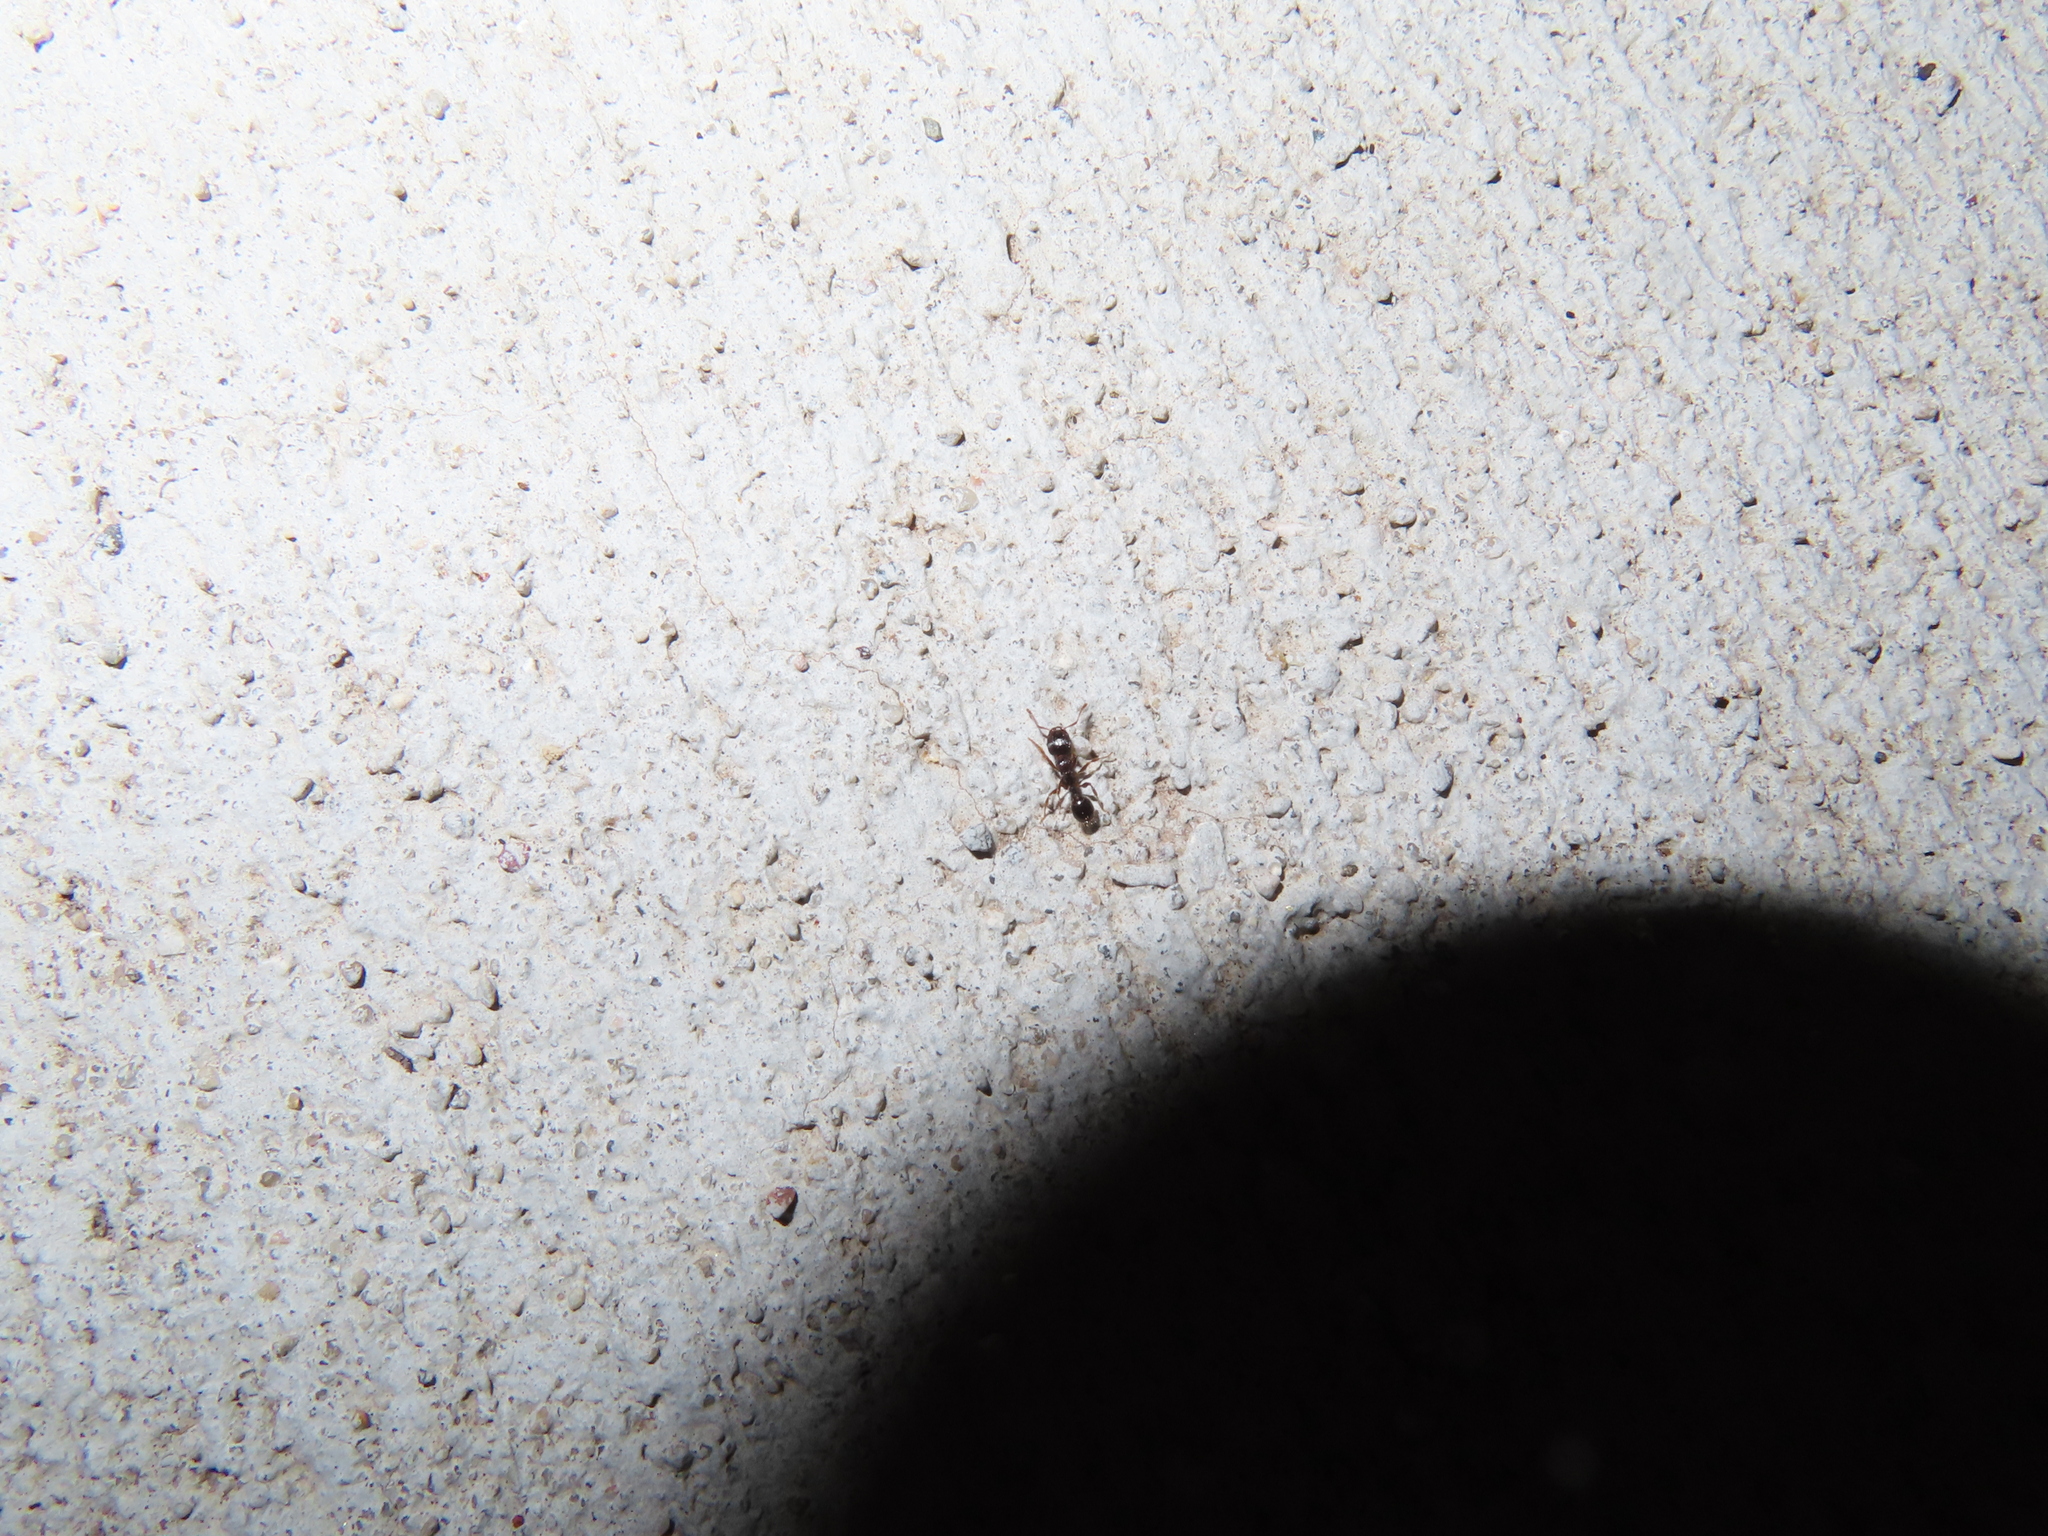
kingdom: Animalia
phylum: Arthropoda
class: Insecta
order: Hymenoptera
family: Formicidae
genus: Tetramorium
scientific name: Tetramorium immigrans
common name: Pavement ant
